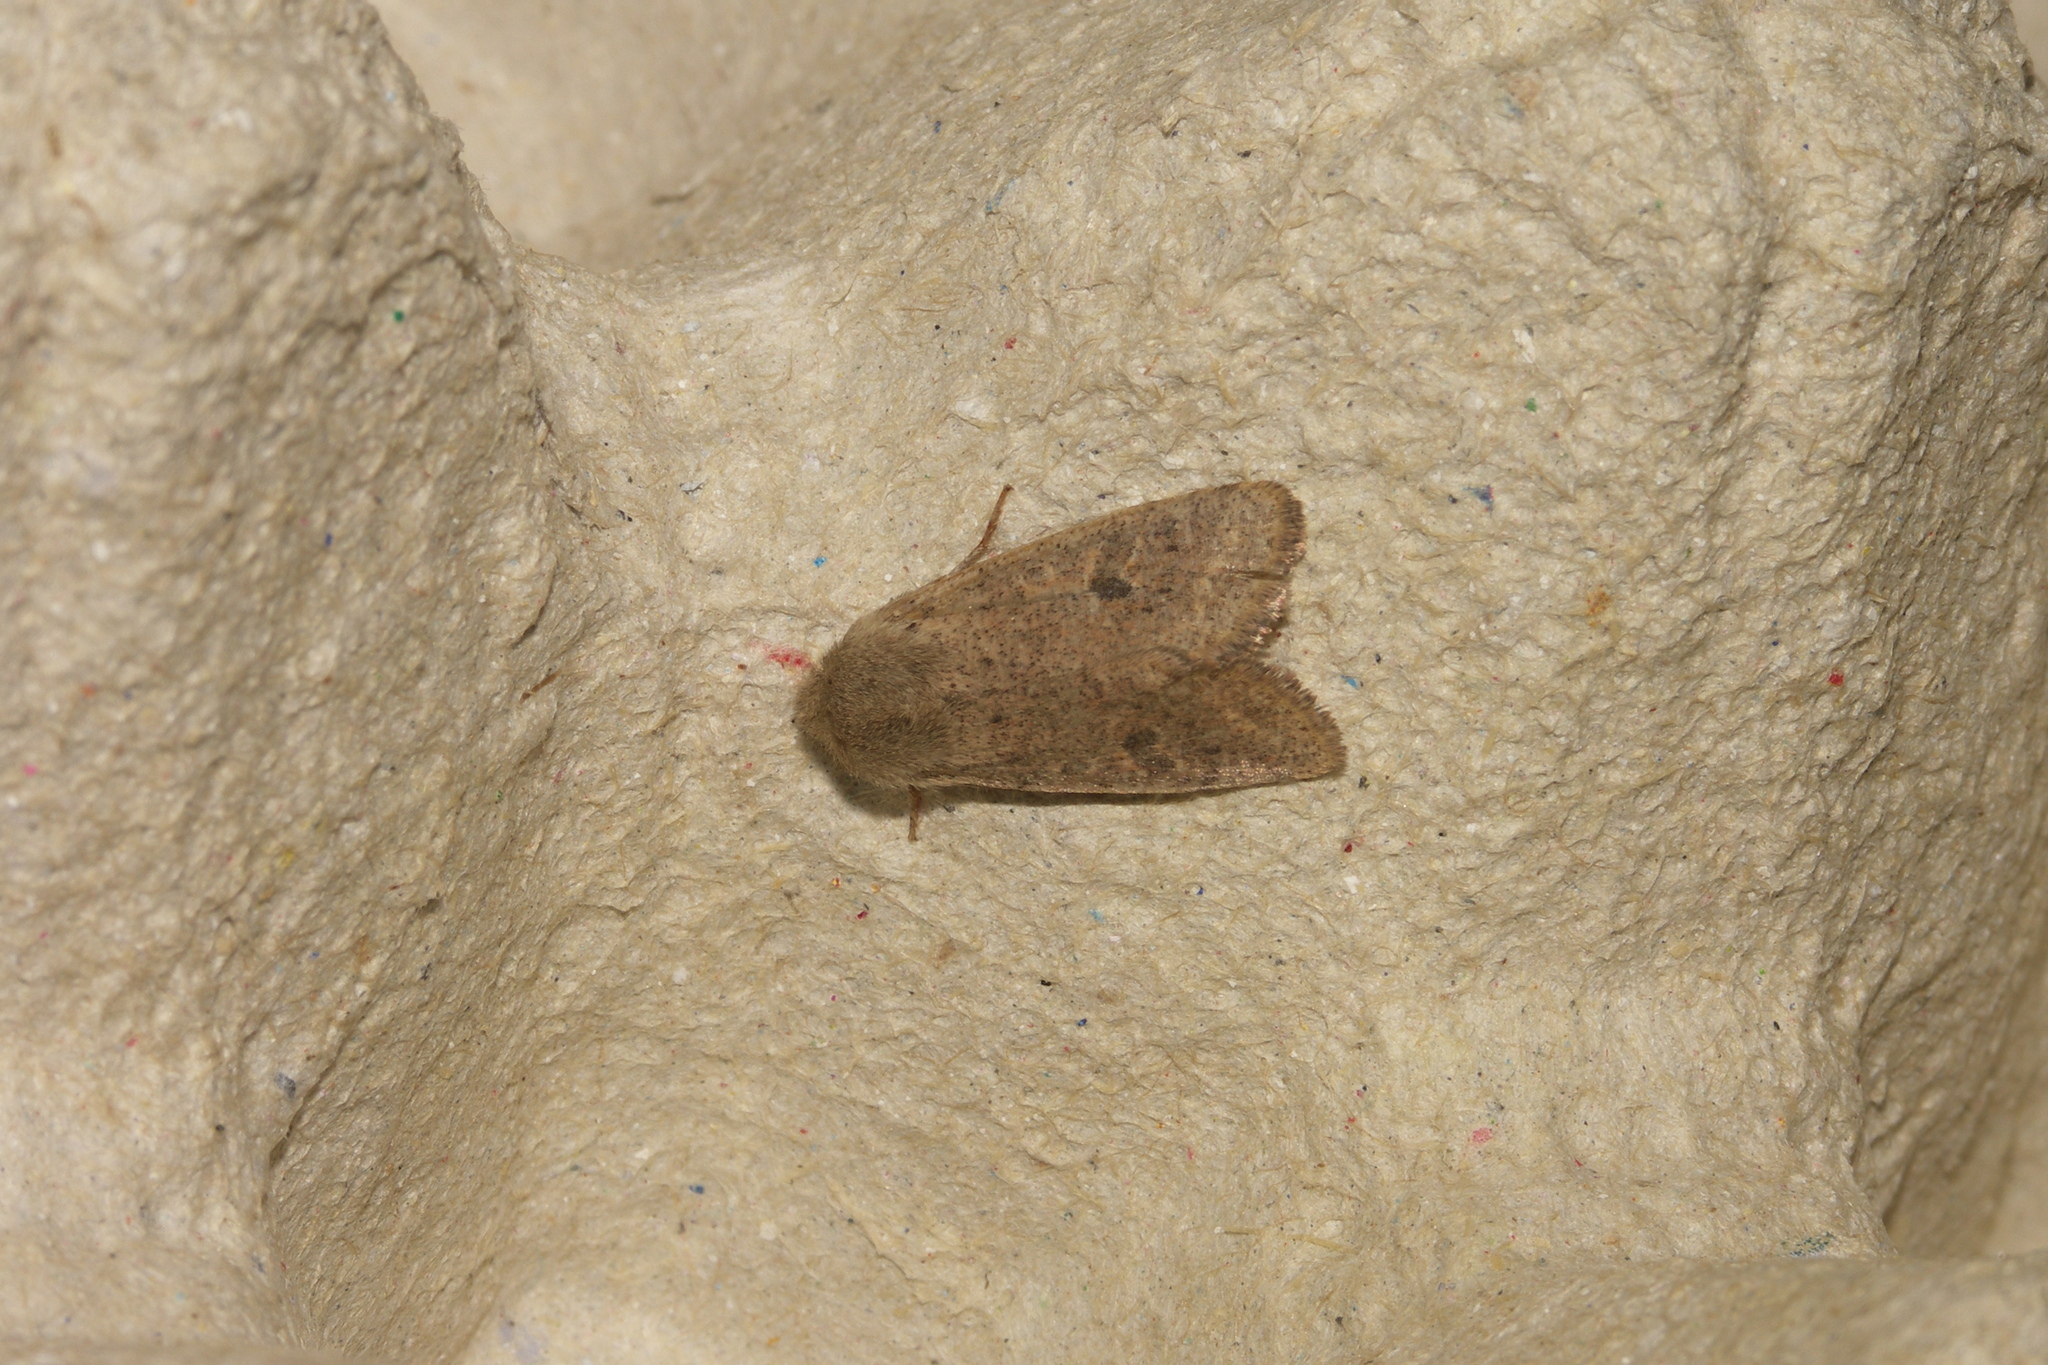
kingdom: Animalia
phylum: Arthropoda
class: Insecta
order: Lepidoptera
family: Noctuidae
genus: Orthosia
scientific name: Orthosia cruda
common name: Small quaker
